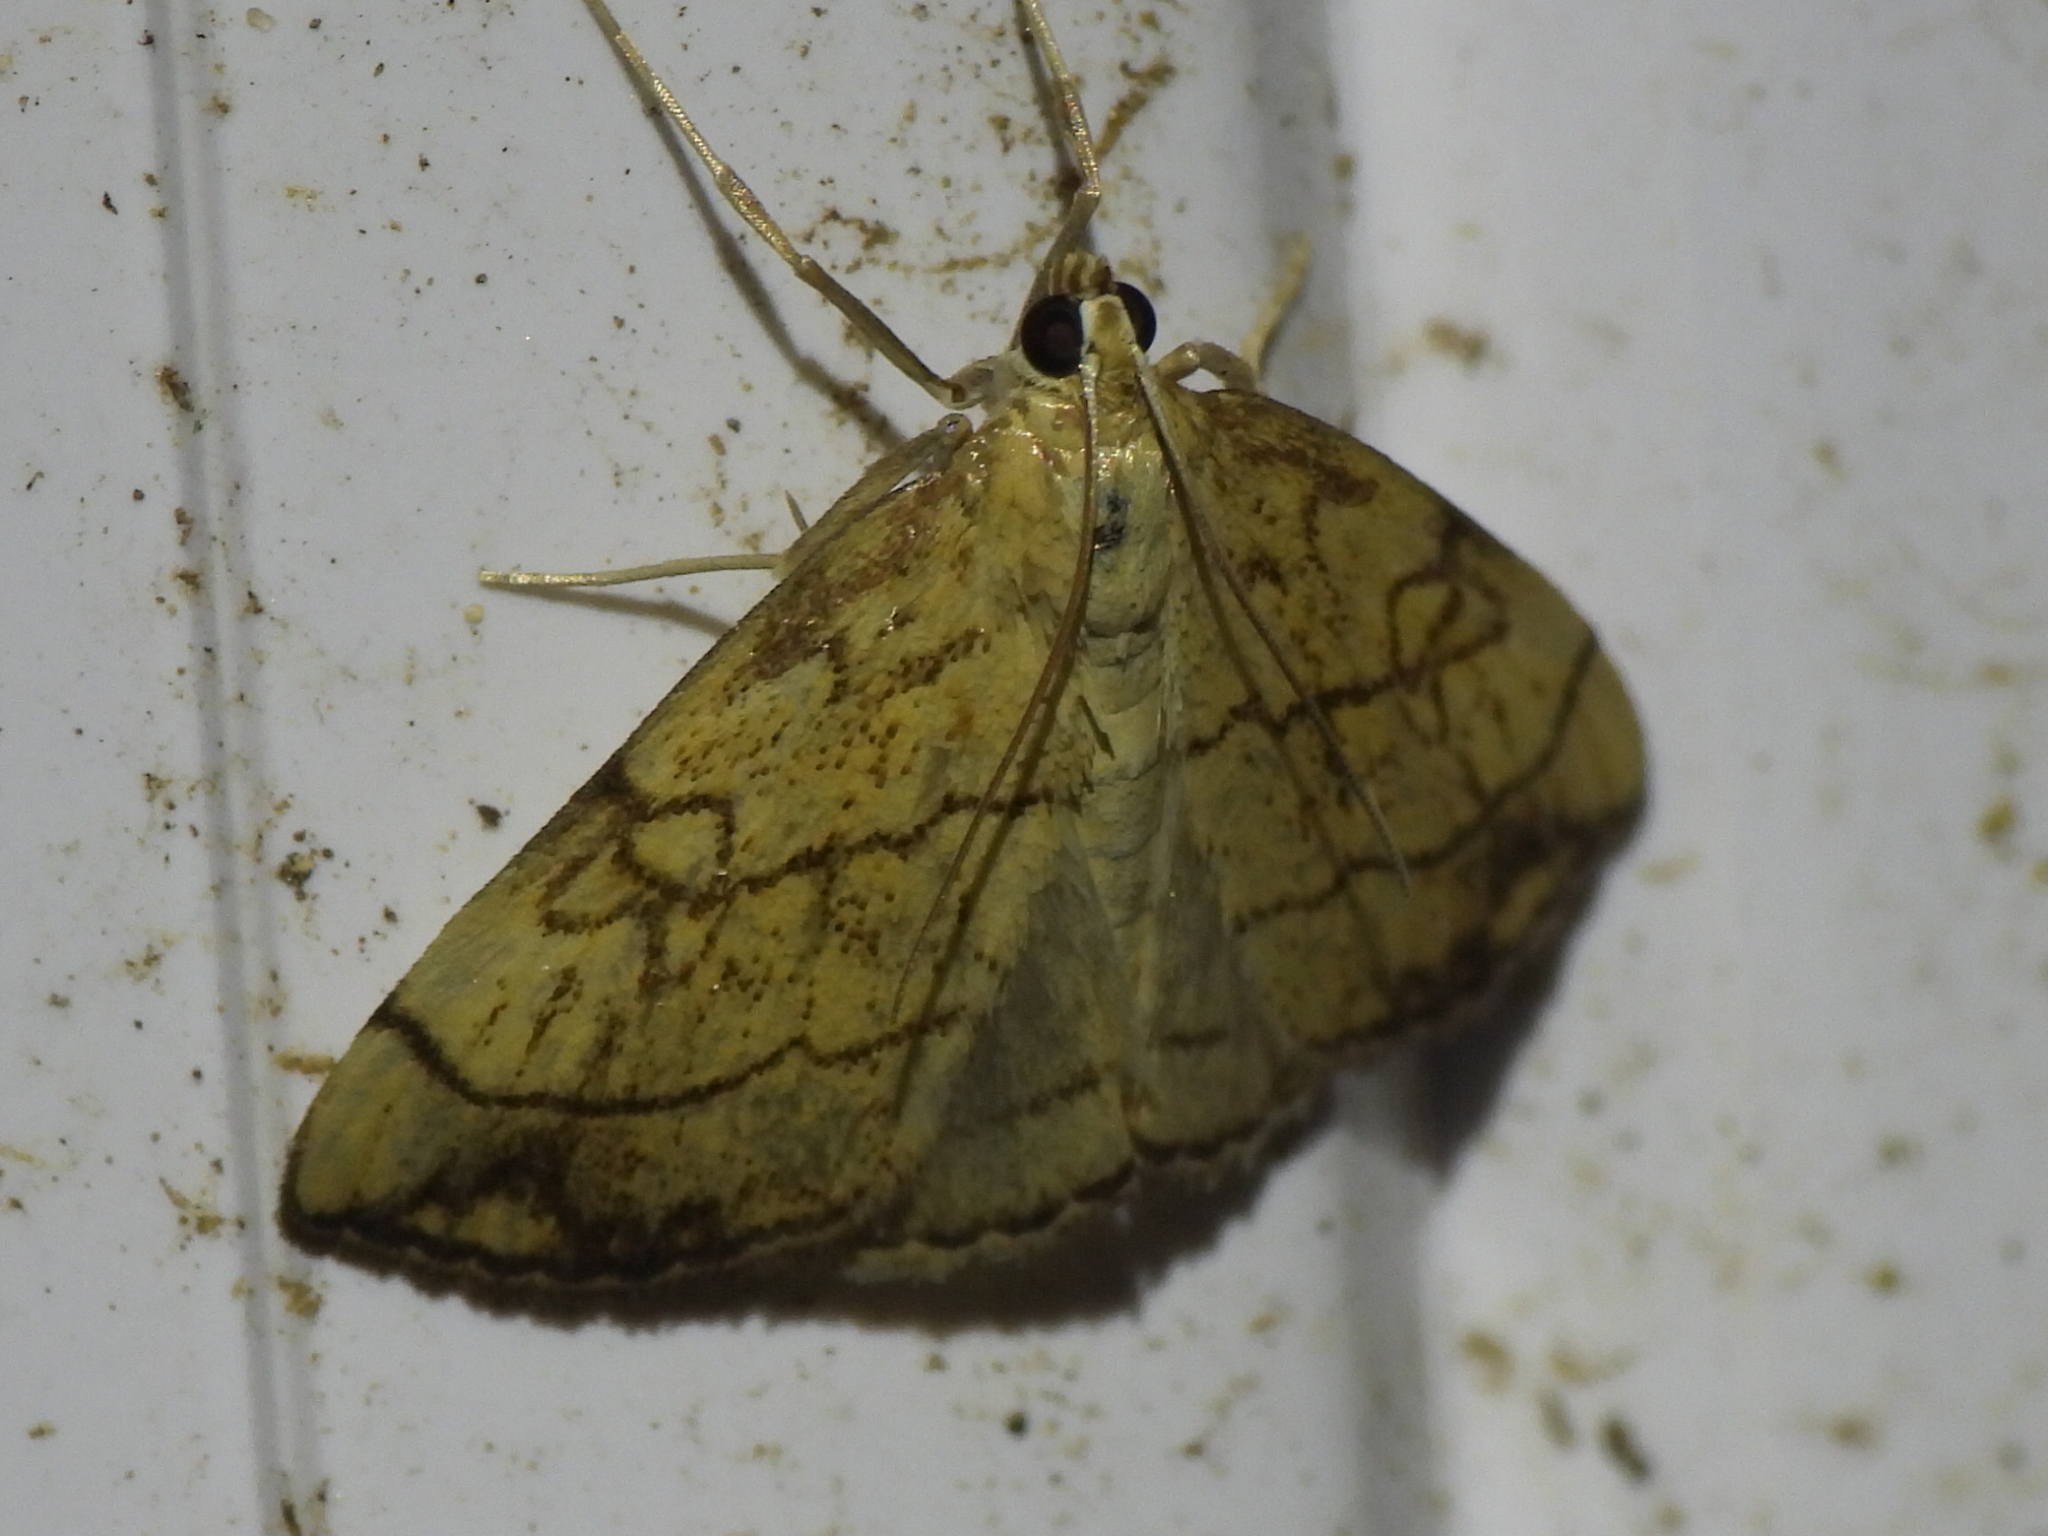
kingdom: Animalia
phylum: Arthropoda
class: Insecta
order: Lepidoptera
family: Crambidae
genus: Evergestis
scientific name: Evergestis pallidata
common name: Chequered pearl
